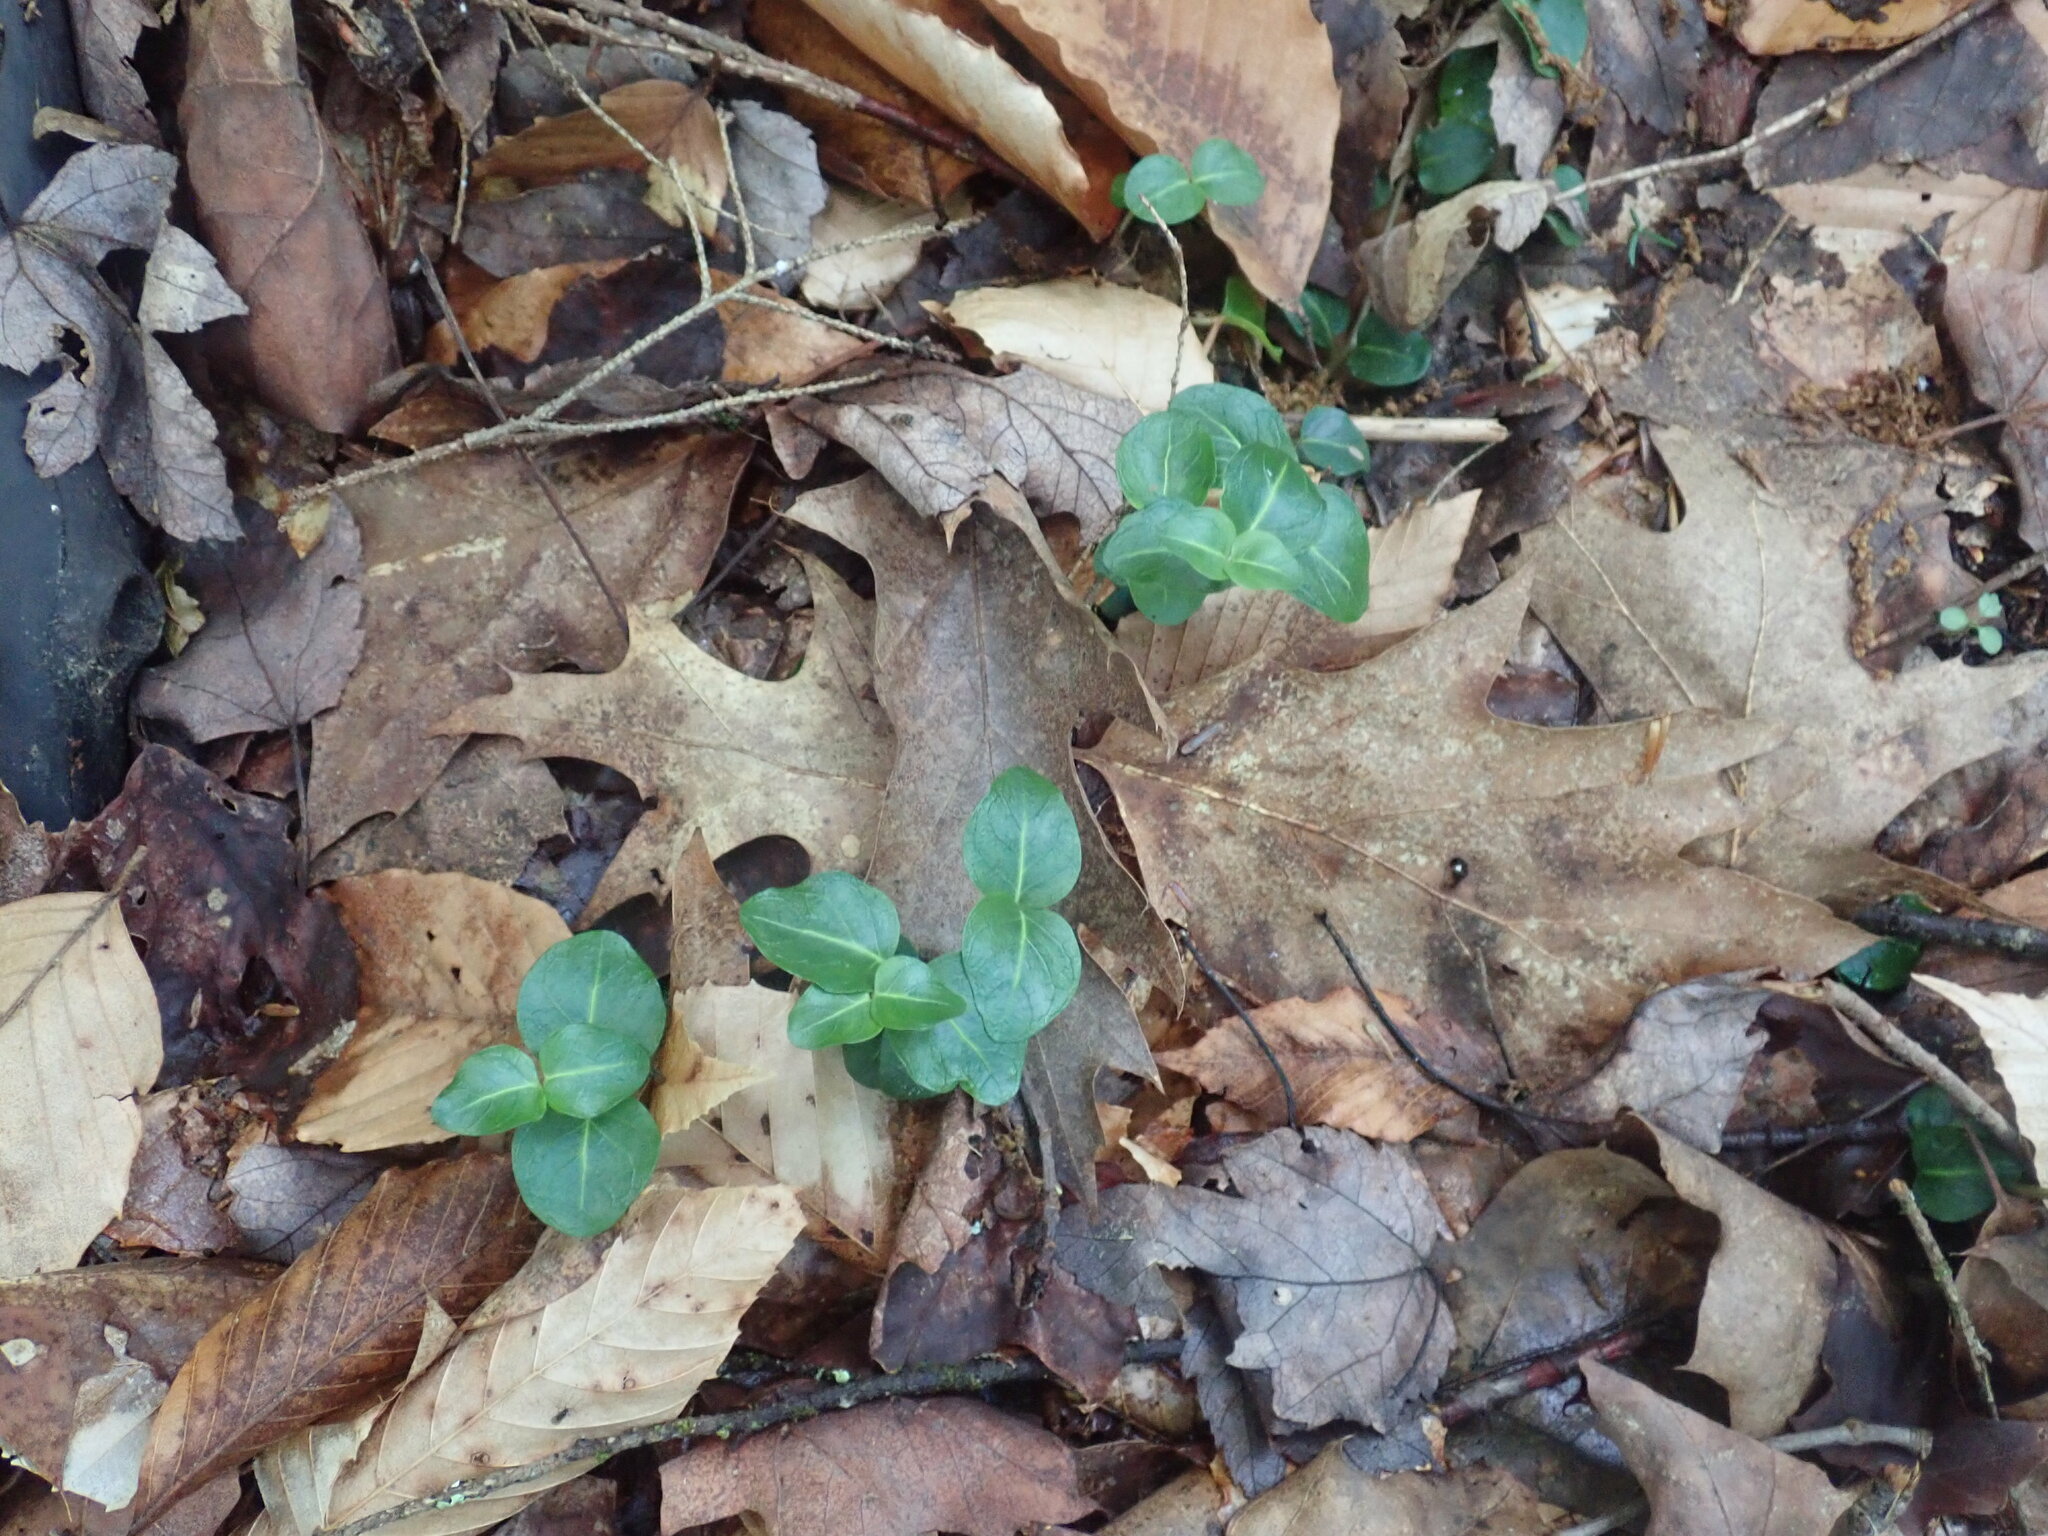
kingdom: Plantae
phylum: Tracheophyta
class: Magnoliopsida
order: Gentianales
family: Rubiaceae
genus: Mitchella
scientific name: Mitchella repens
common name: Partridge-berry
